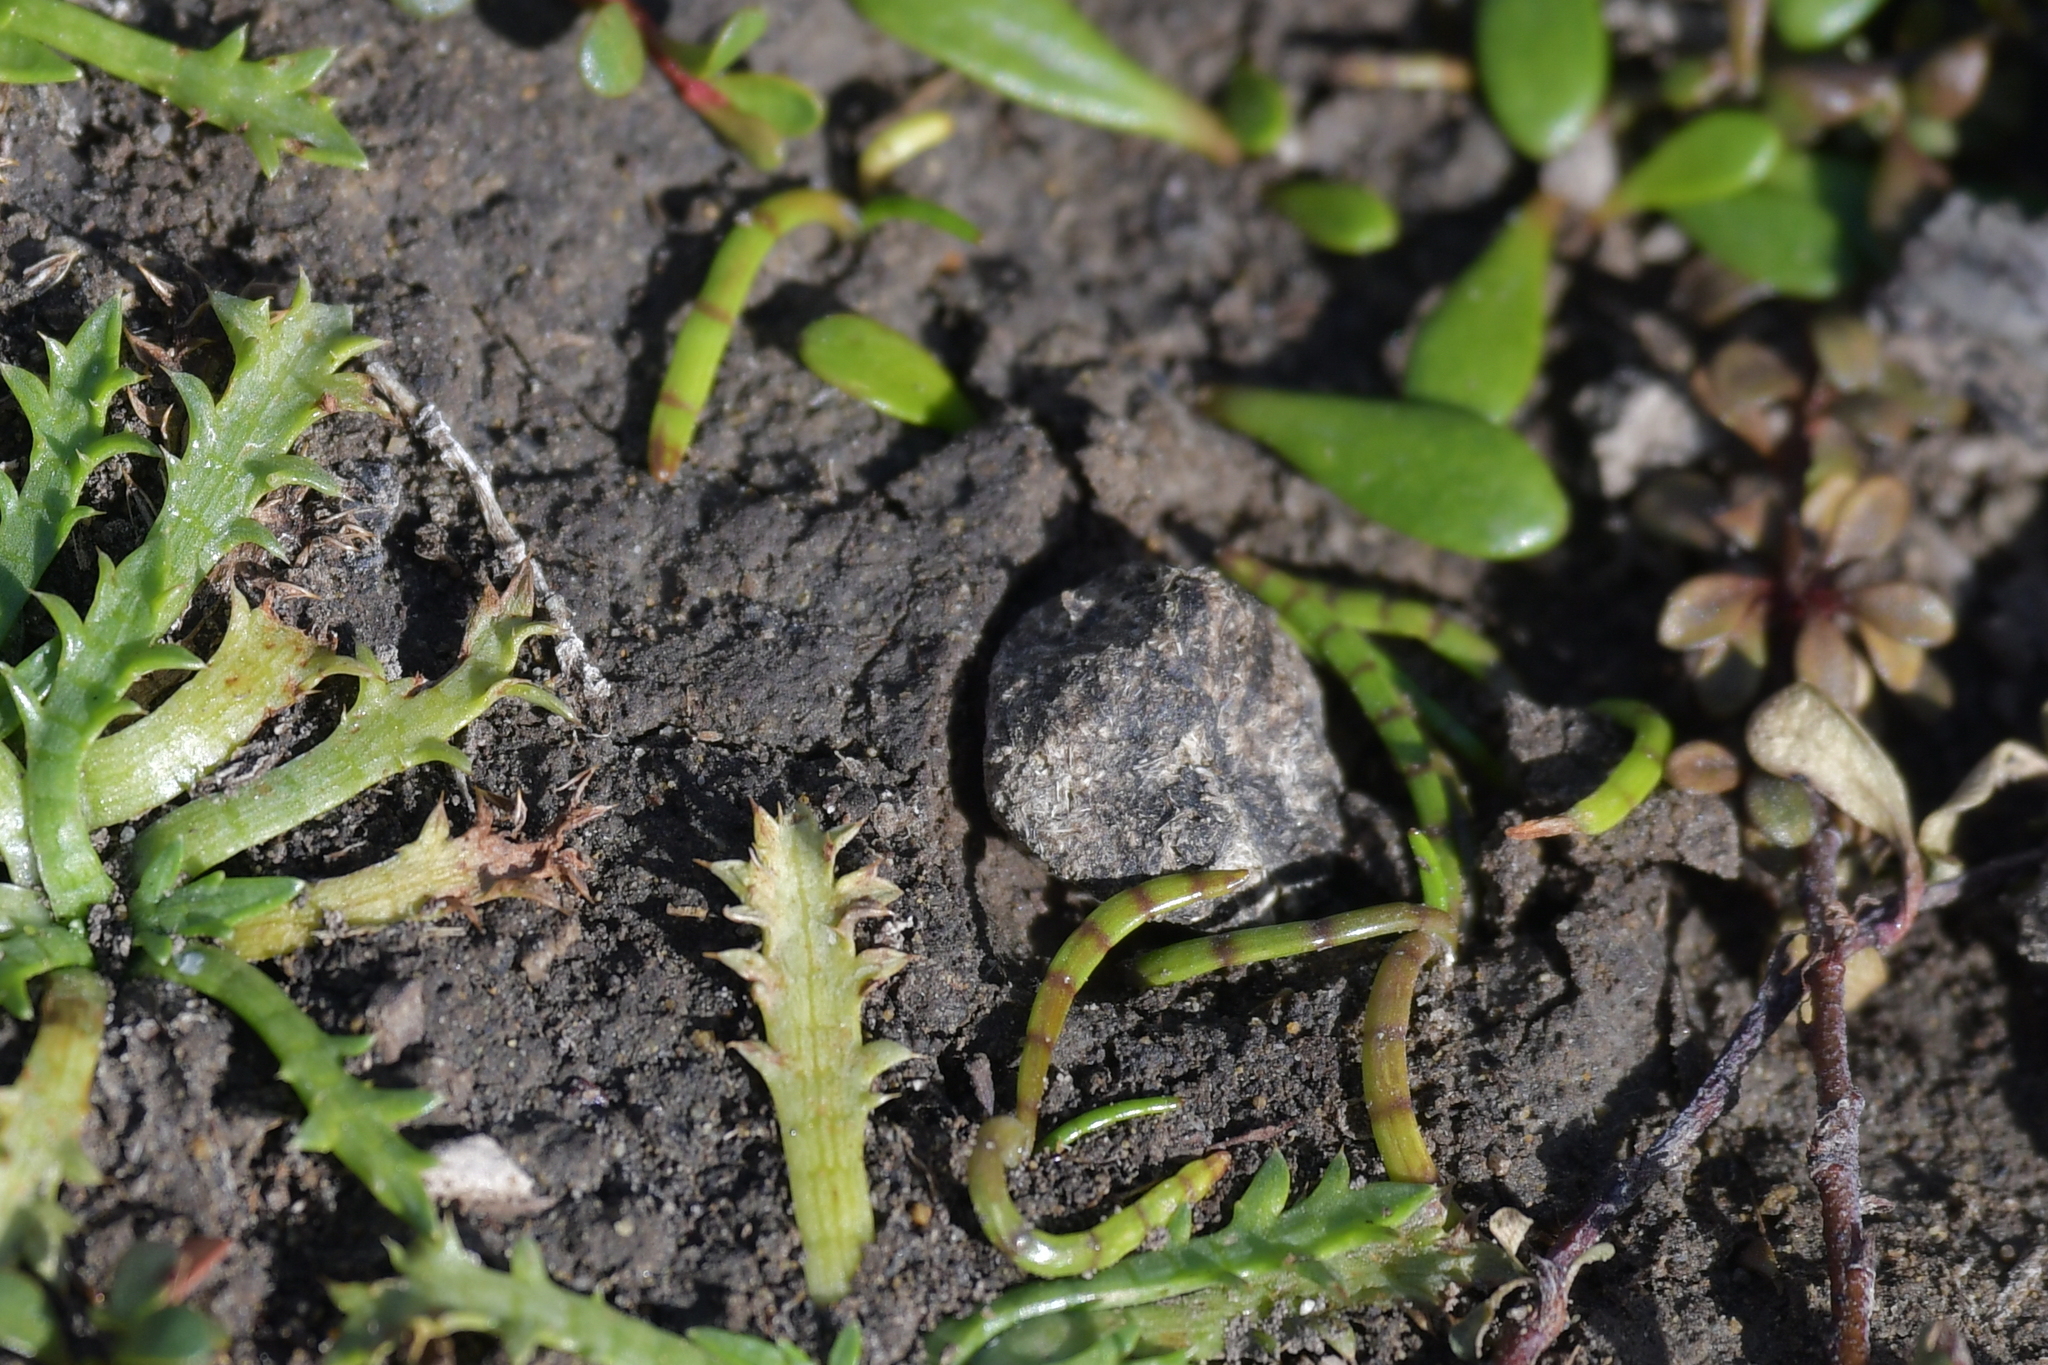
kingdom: Plantae
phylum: Tracheophyta
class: Magnoliopsida
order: Apiales
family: Apiaceae
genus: Lilaeopsis
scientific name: Lilaeopsis novae-zelandiae
